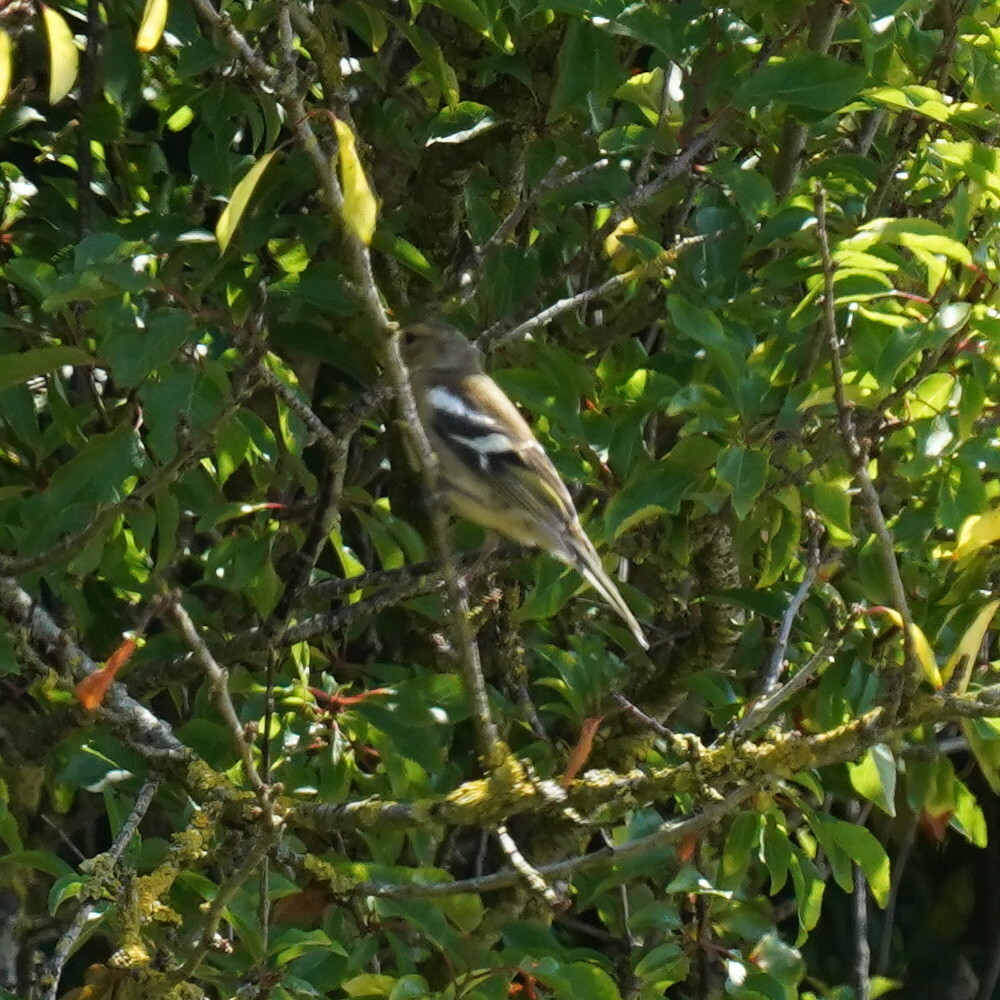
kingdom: Animalia
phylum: Chordata
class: Aves
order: Passeriformes
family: Fringillidae
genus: Fringilla
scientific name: Fringilla coelebs
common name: Common chaffinch
